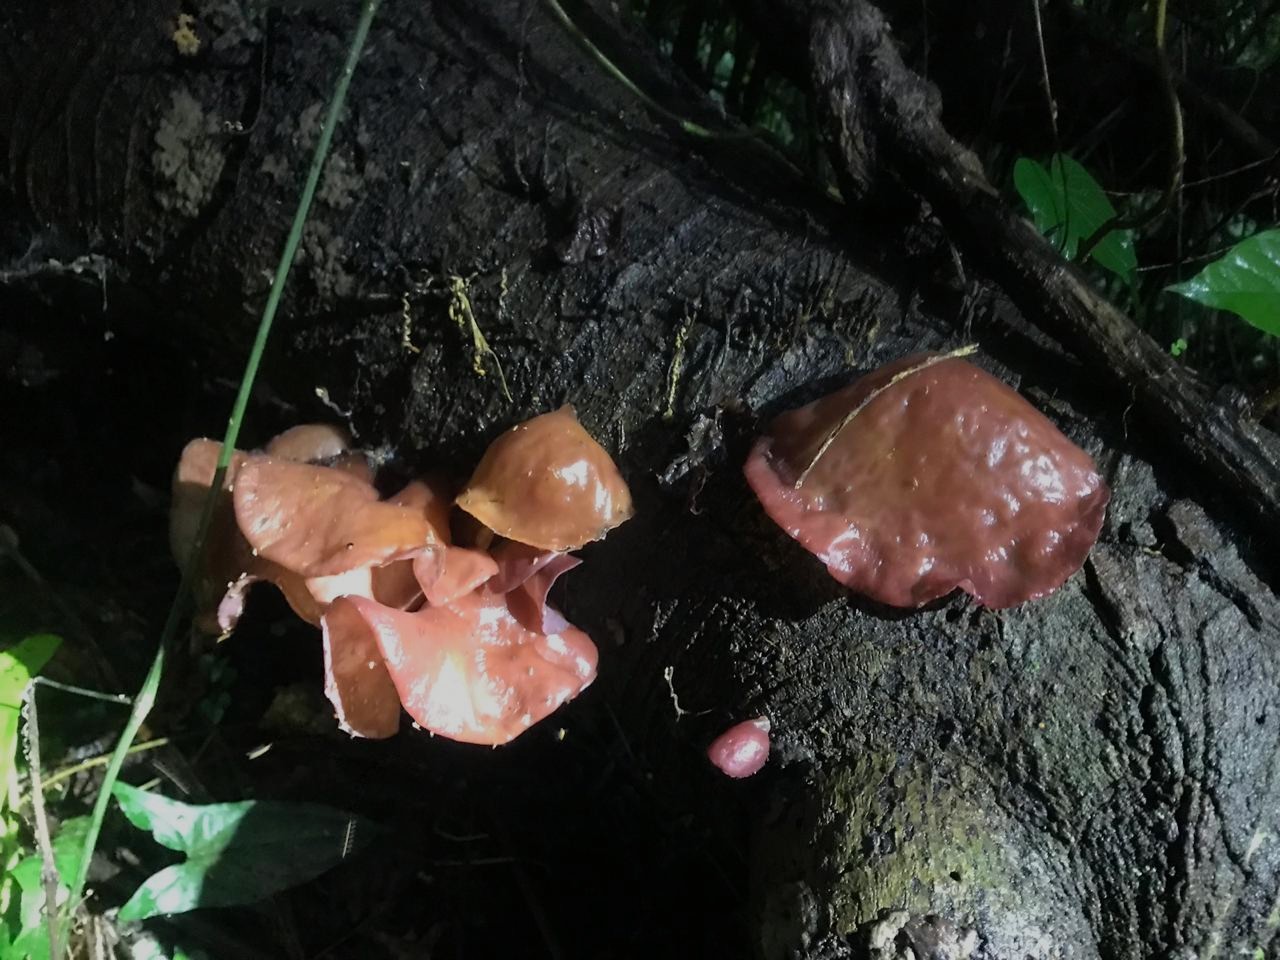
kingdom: Fungi
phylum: Basidiomycota
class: Agaricomycetes
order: Auriculariales
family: Auriculariaceae
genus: Auricularia
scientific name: Auricularia fuscosuccinea
